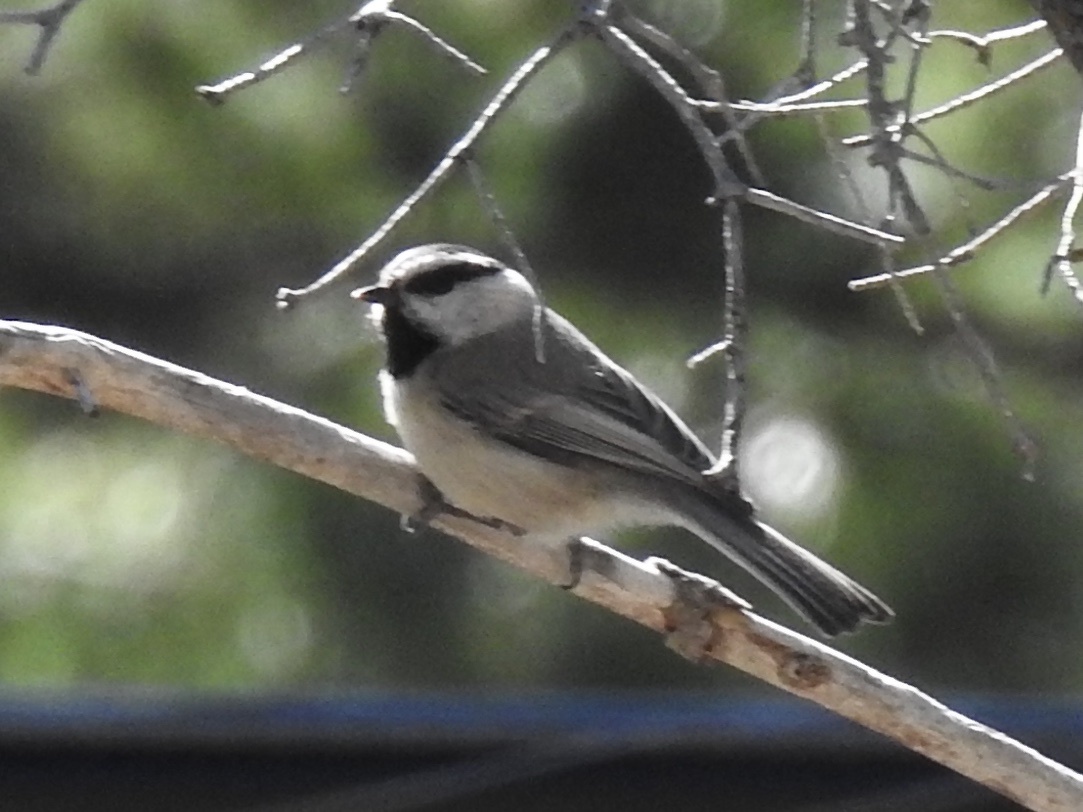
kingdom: Animalia
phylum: Chordata
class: Aves
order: Passeriformes
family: Paridae
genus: Poecile
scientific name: Poecile gambeli
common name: Mountain chickadee
